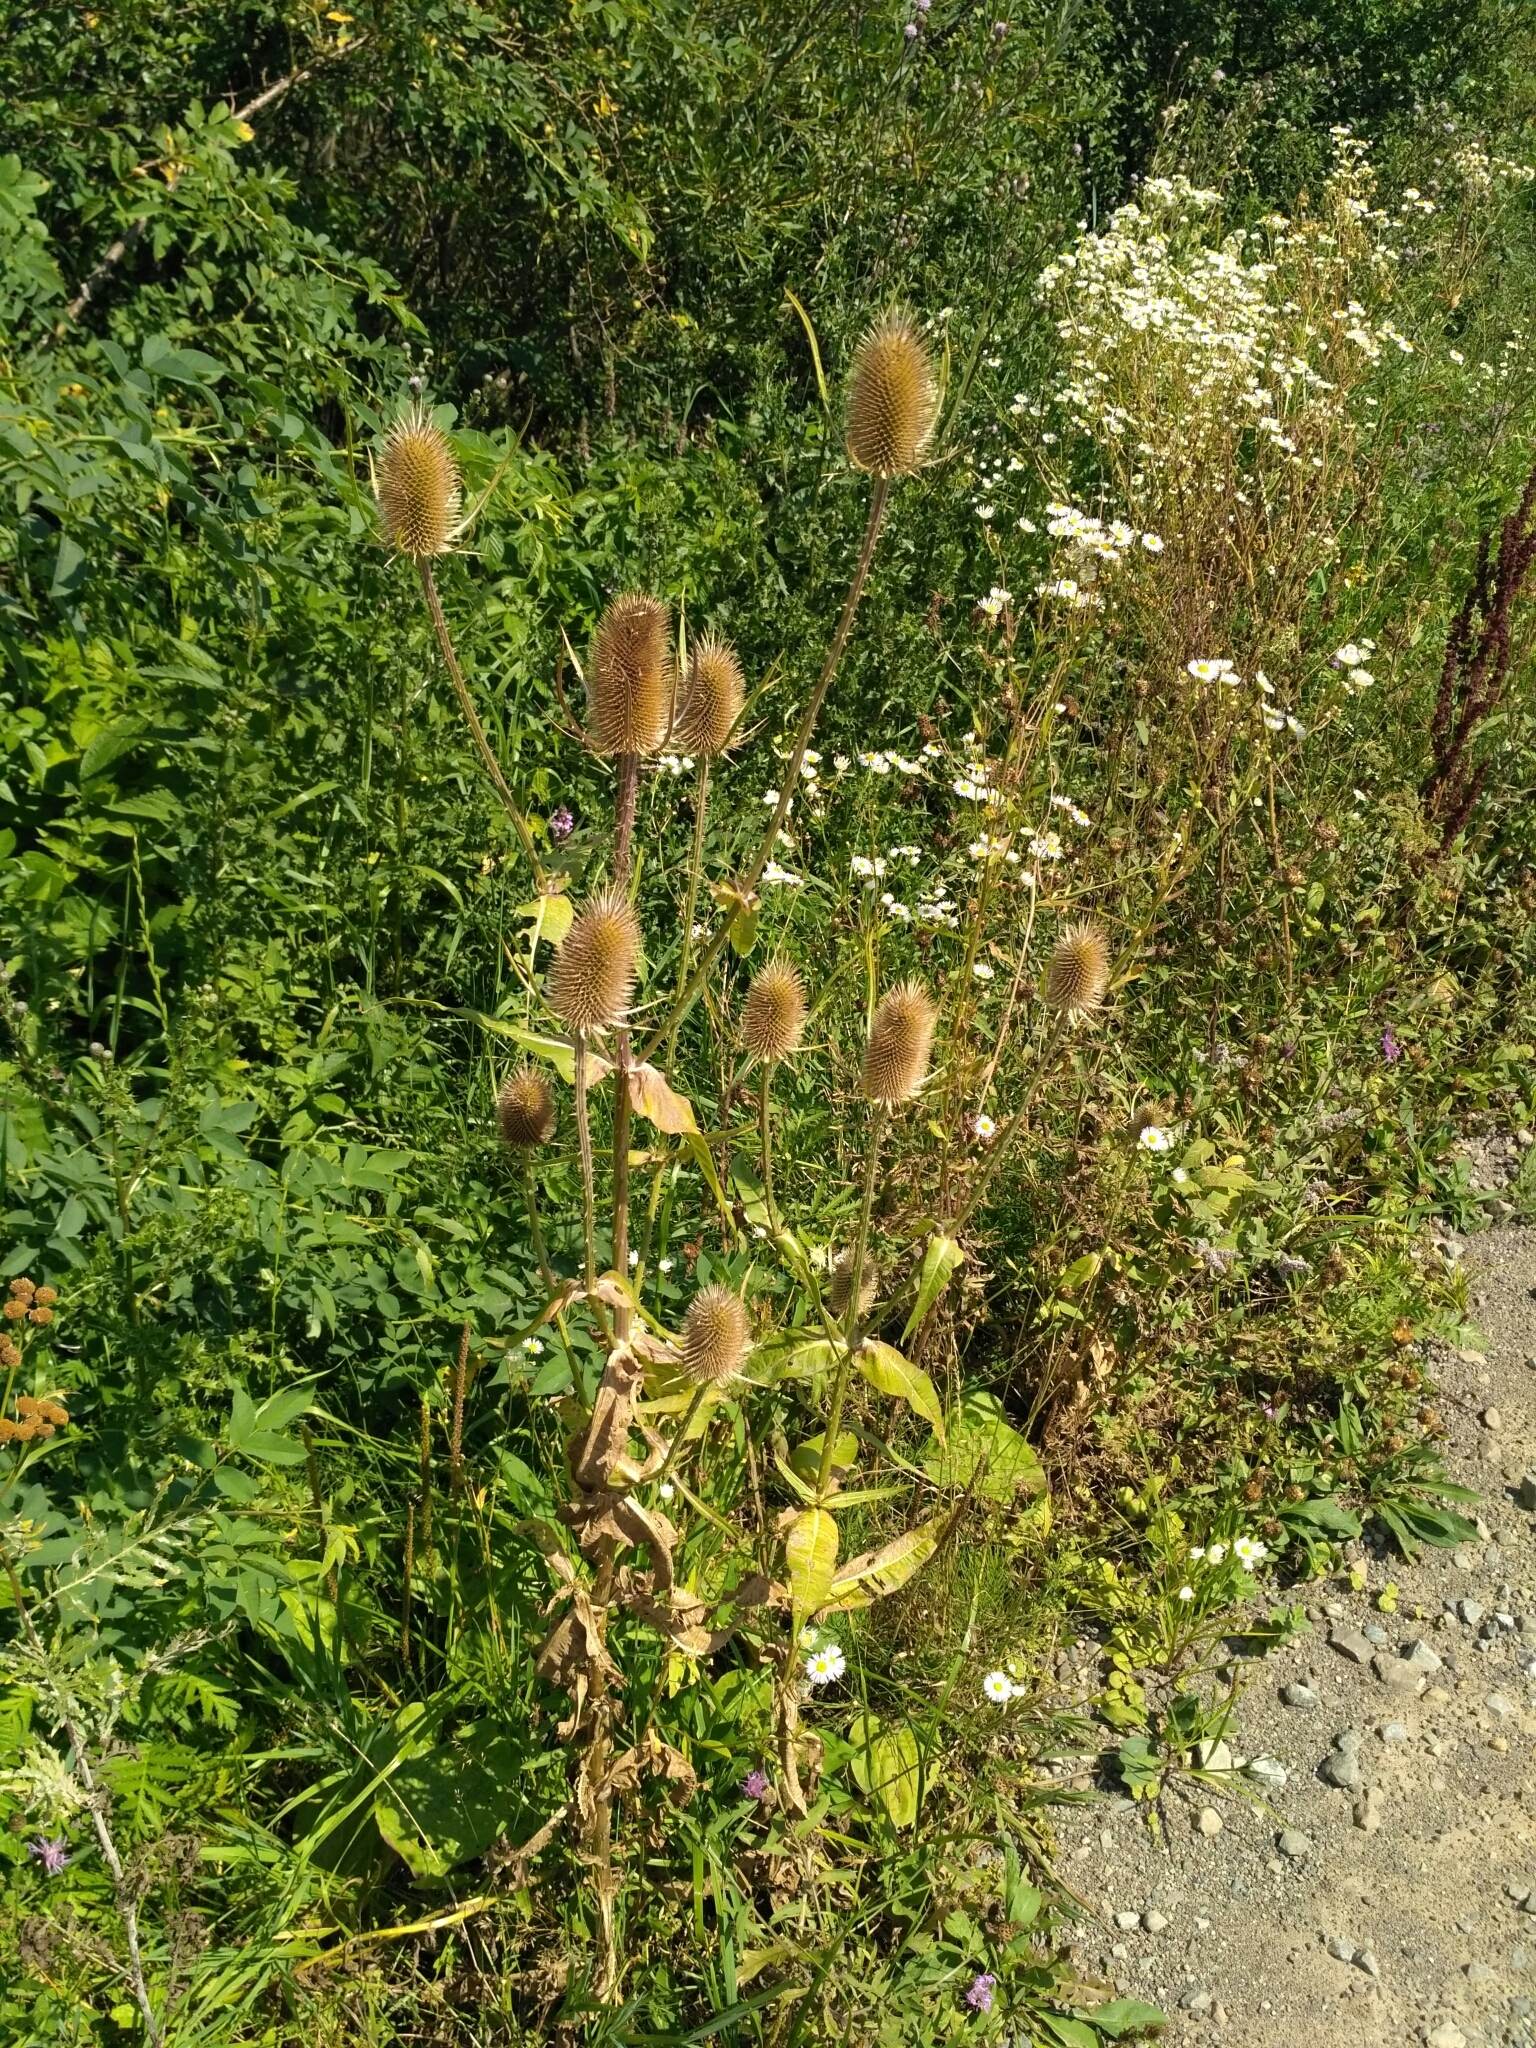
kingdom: Plantae
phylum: Tracheophyta
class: Magnoliopsida
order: Dipsacales
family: Caprifoliaceae
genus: Dipsacus
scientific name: Dipsacus fullonum
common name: Teasel
